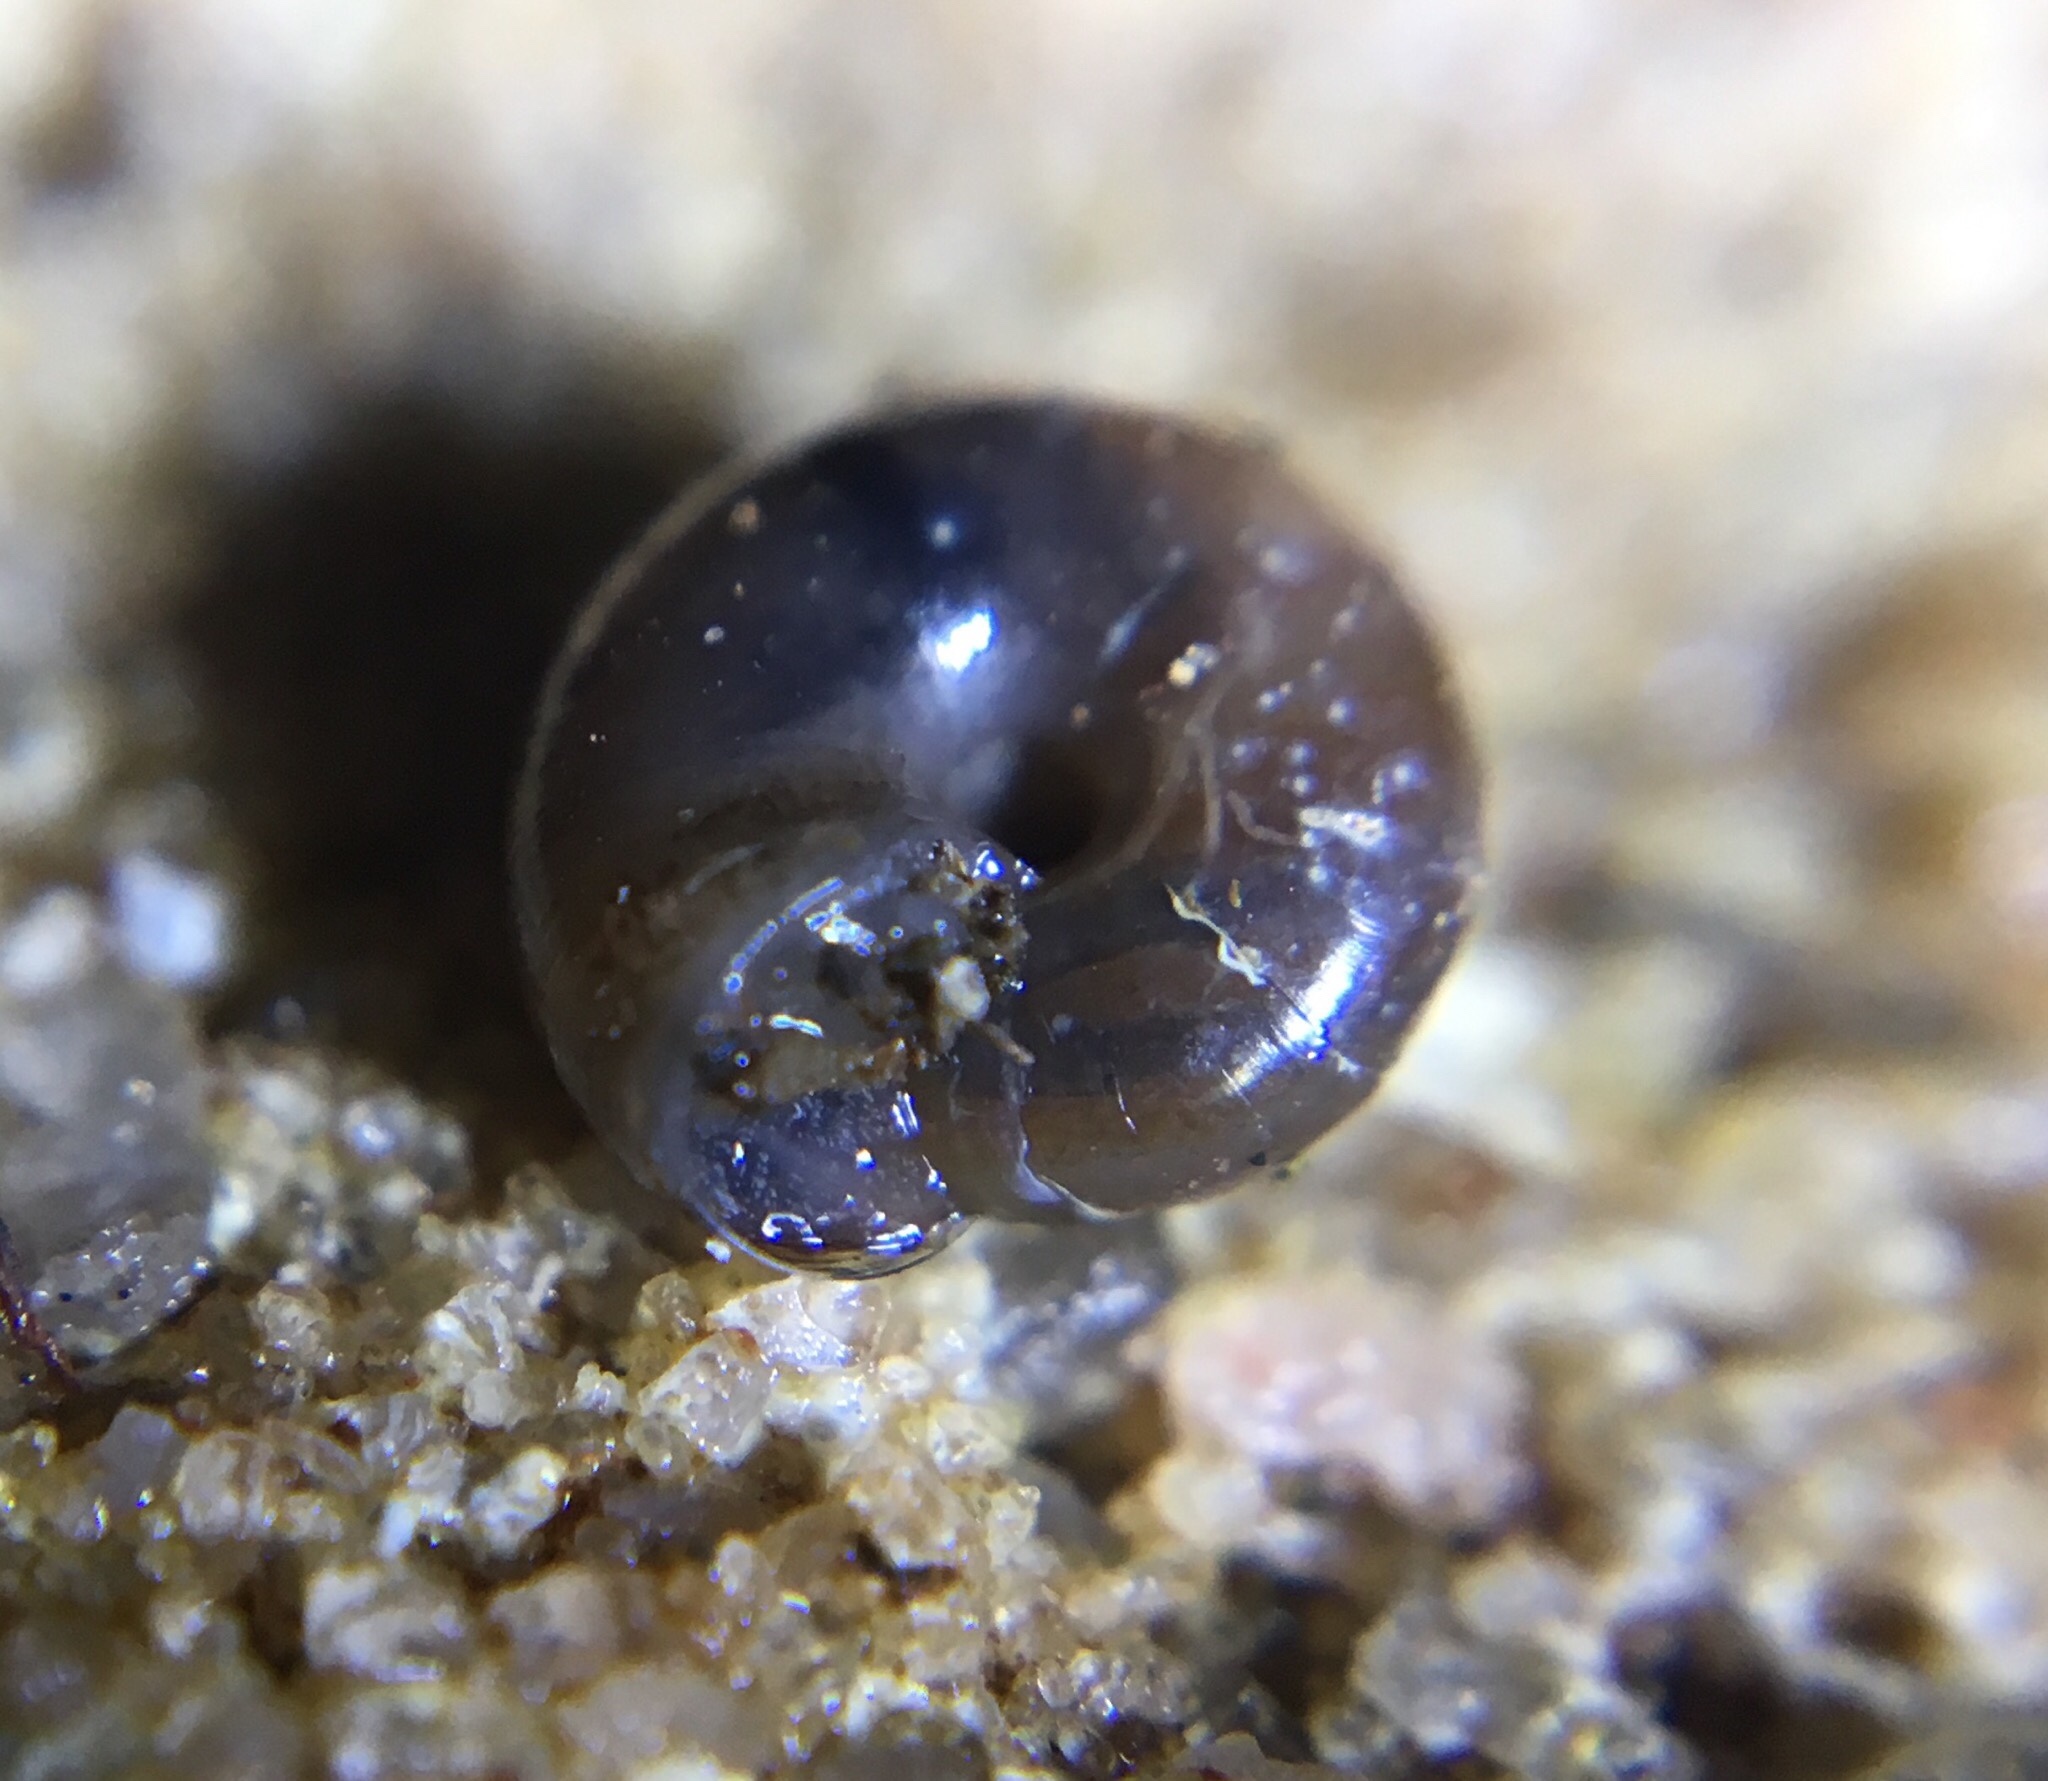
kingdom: Animalia
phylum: Mollusca
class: Gastropoda
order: Stylommatophora
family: Gastrodontidae
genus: Zonitoides
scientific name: Zonitoides arboreus
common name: Quick gloss
